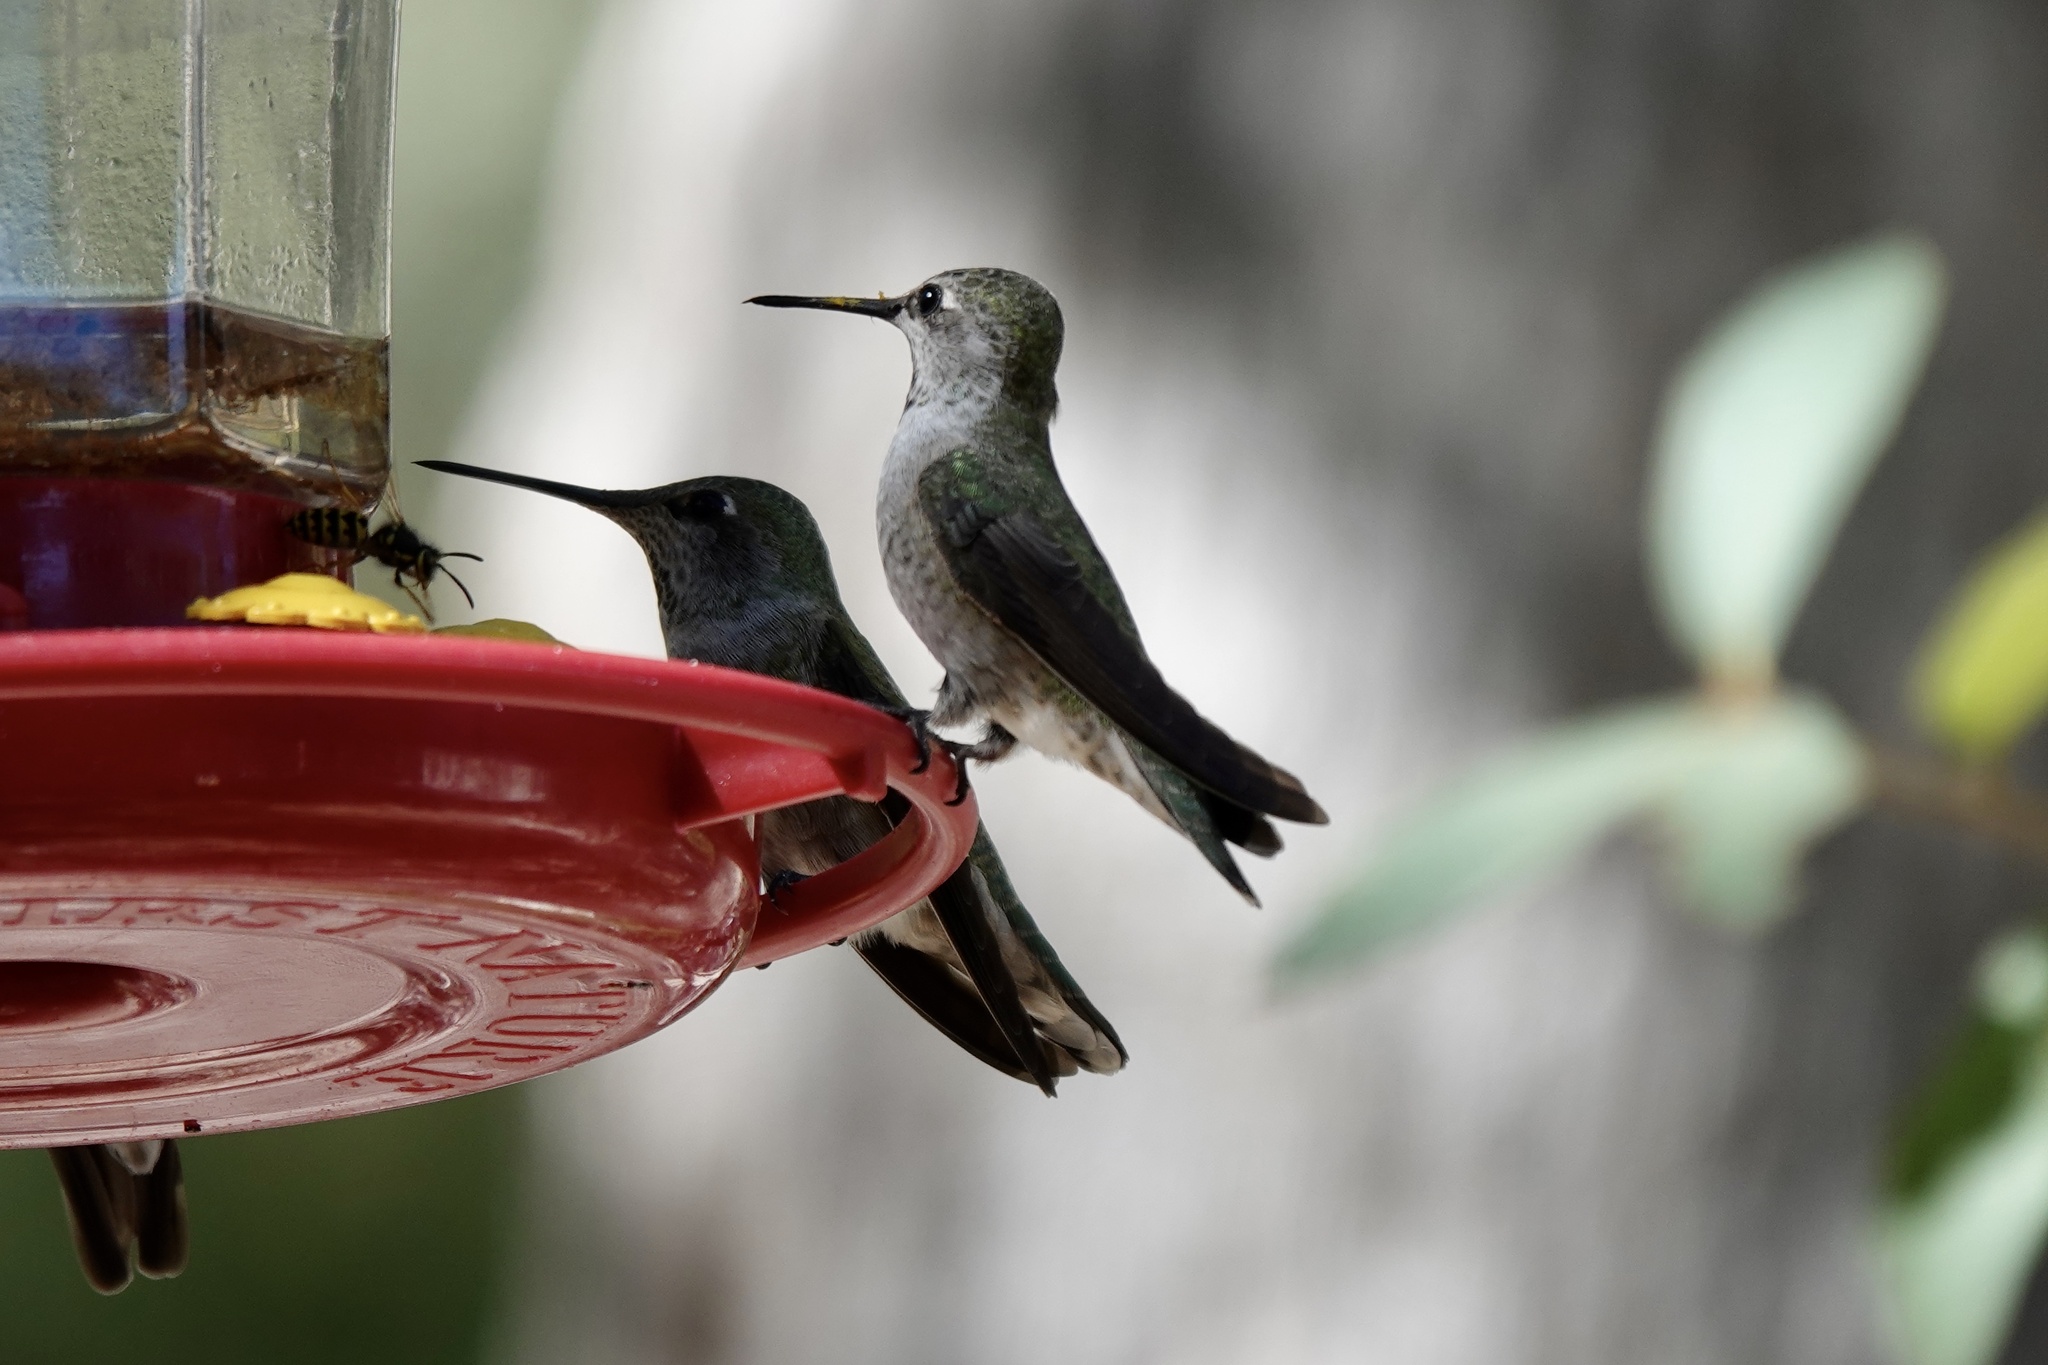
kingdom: Animalia
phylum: Chordata
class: Aves
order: Apodiformes
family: Trochilidae
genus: Calypte
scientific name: Calypte anna
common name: Anna's hummingbird
